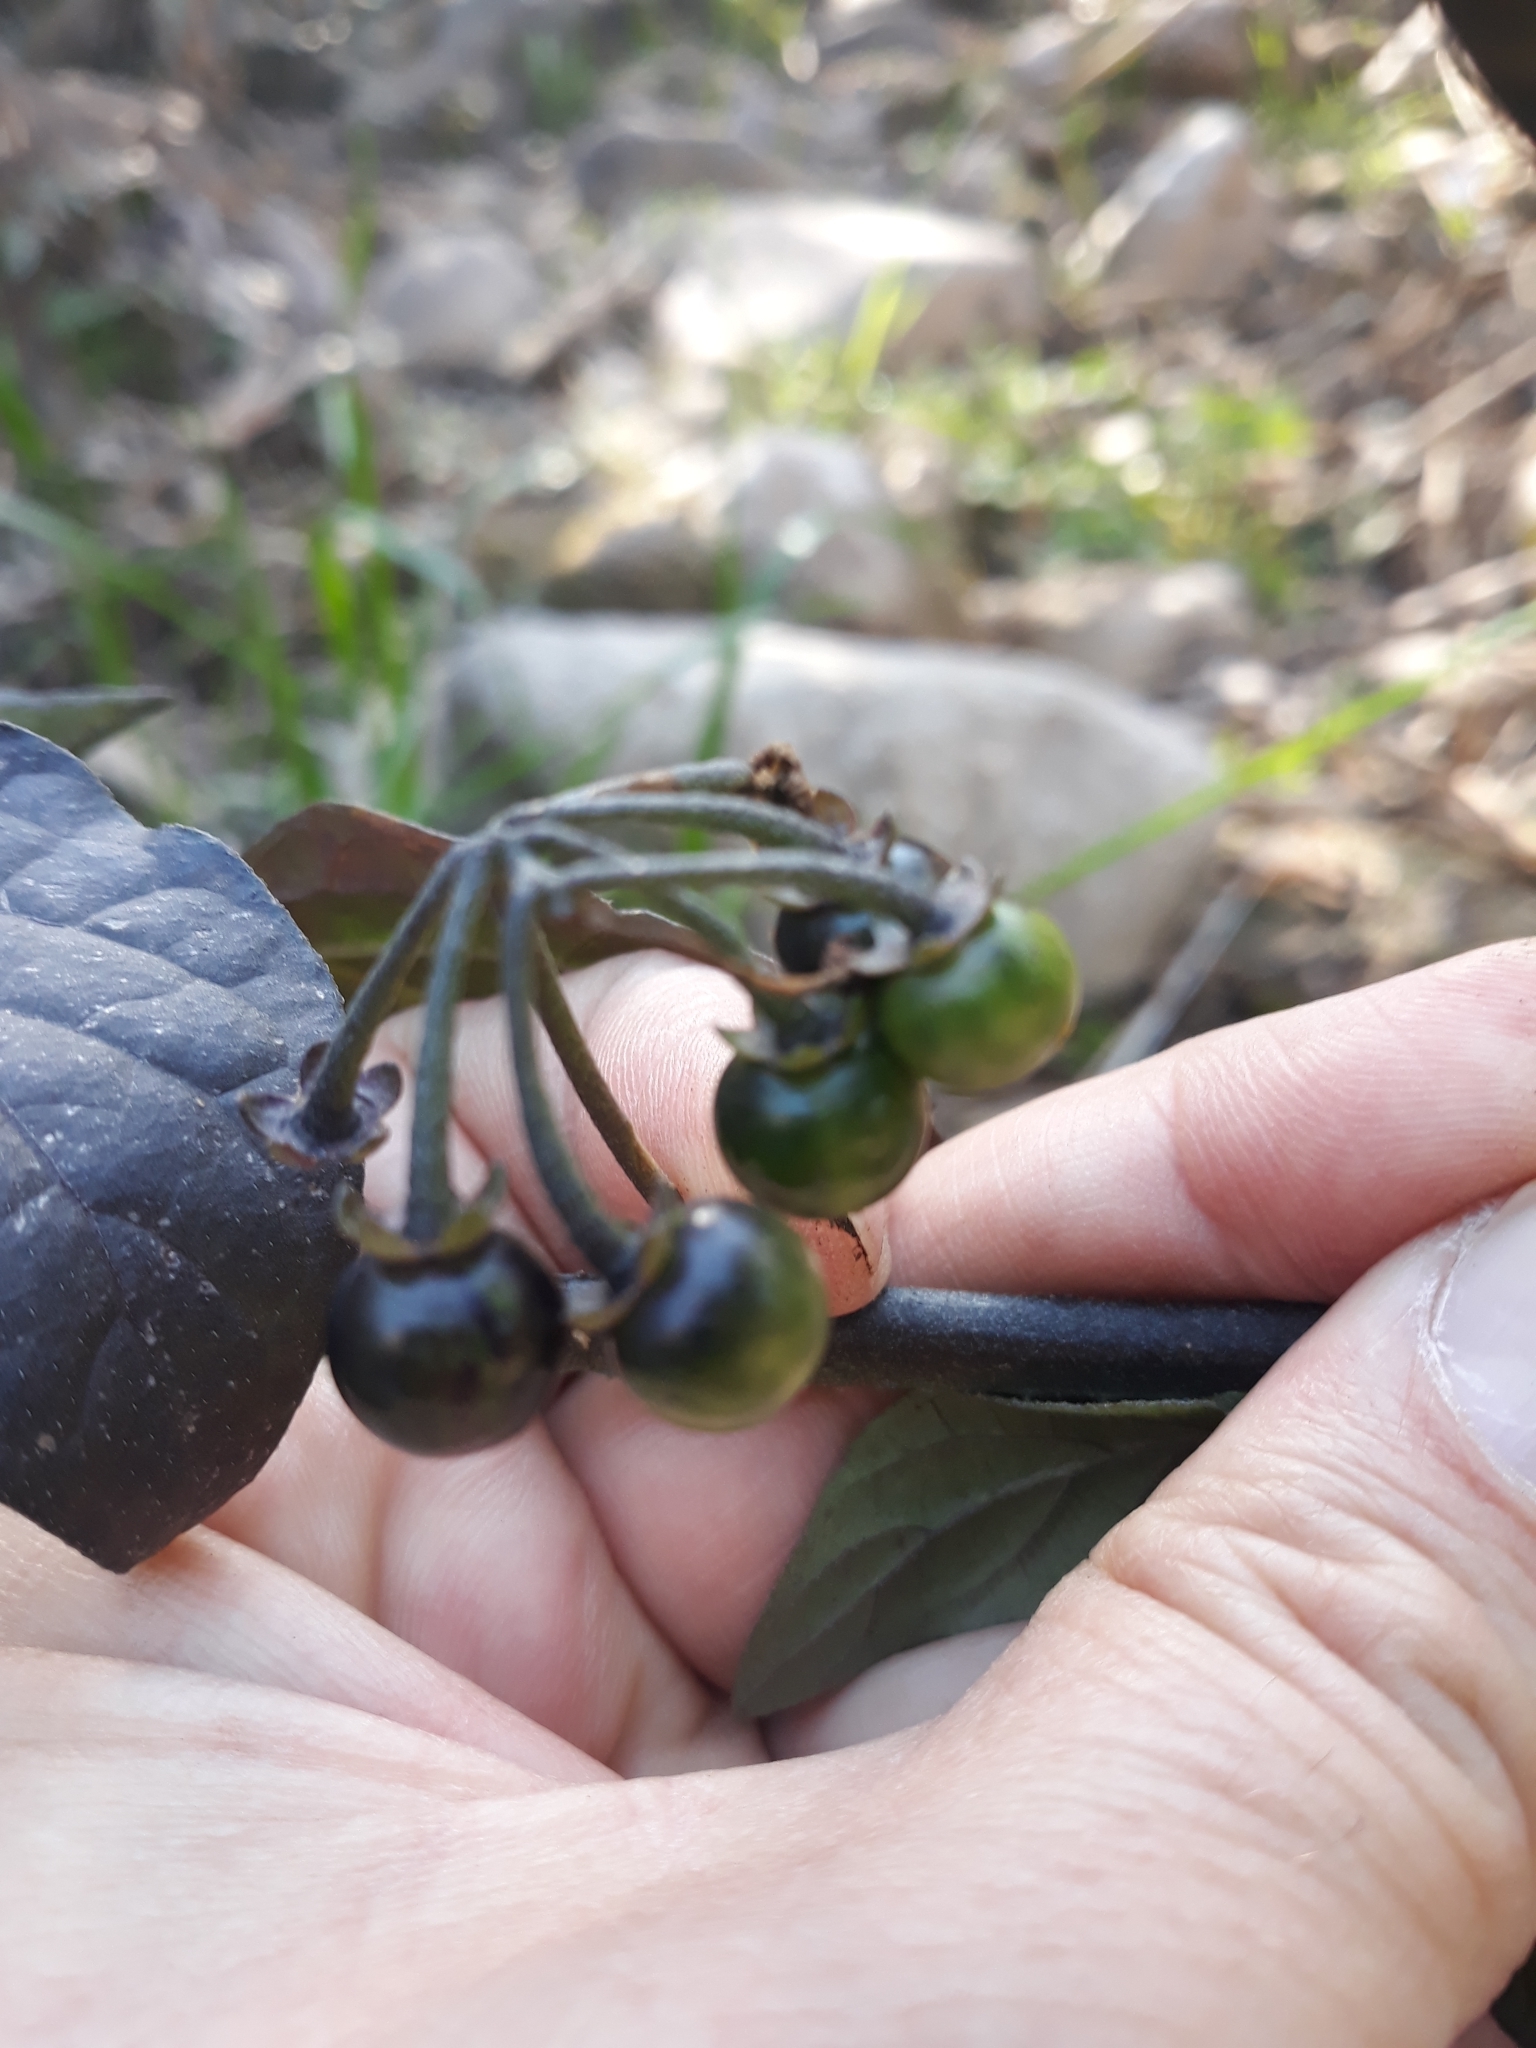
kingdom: Plantae
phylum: Tracheophyta
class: Magnoliopsida
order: Solanales
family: Solanaceae
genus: Solanum
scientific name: Solanum nigrum
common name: Black nightshade
